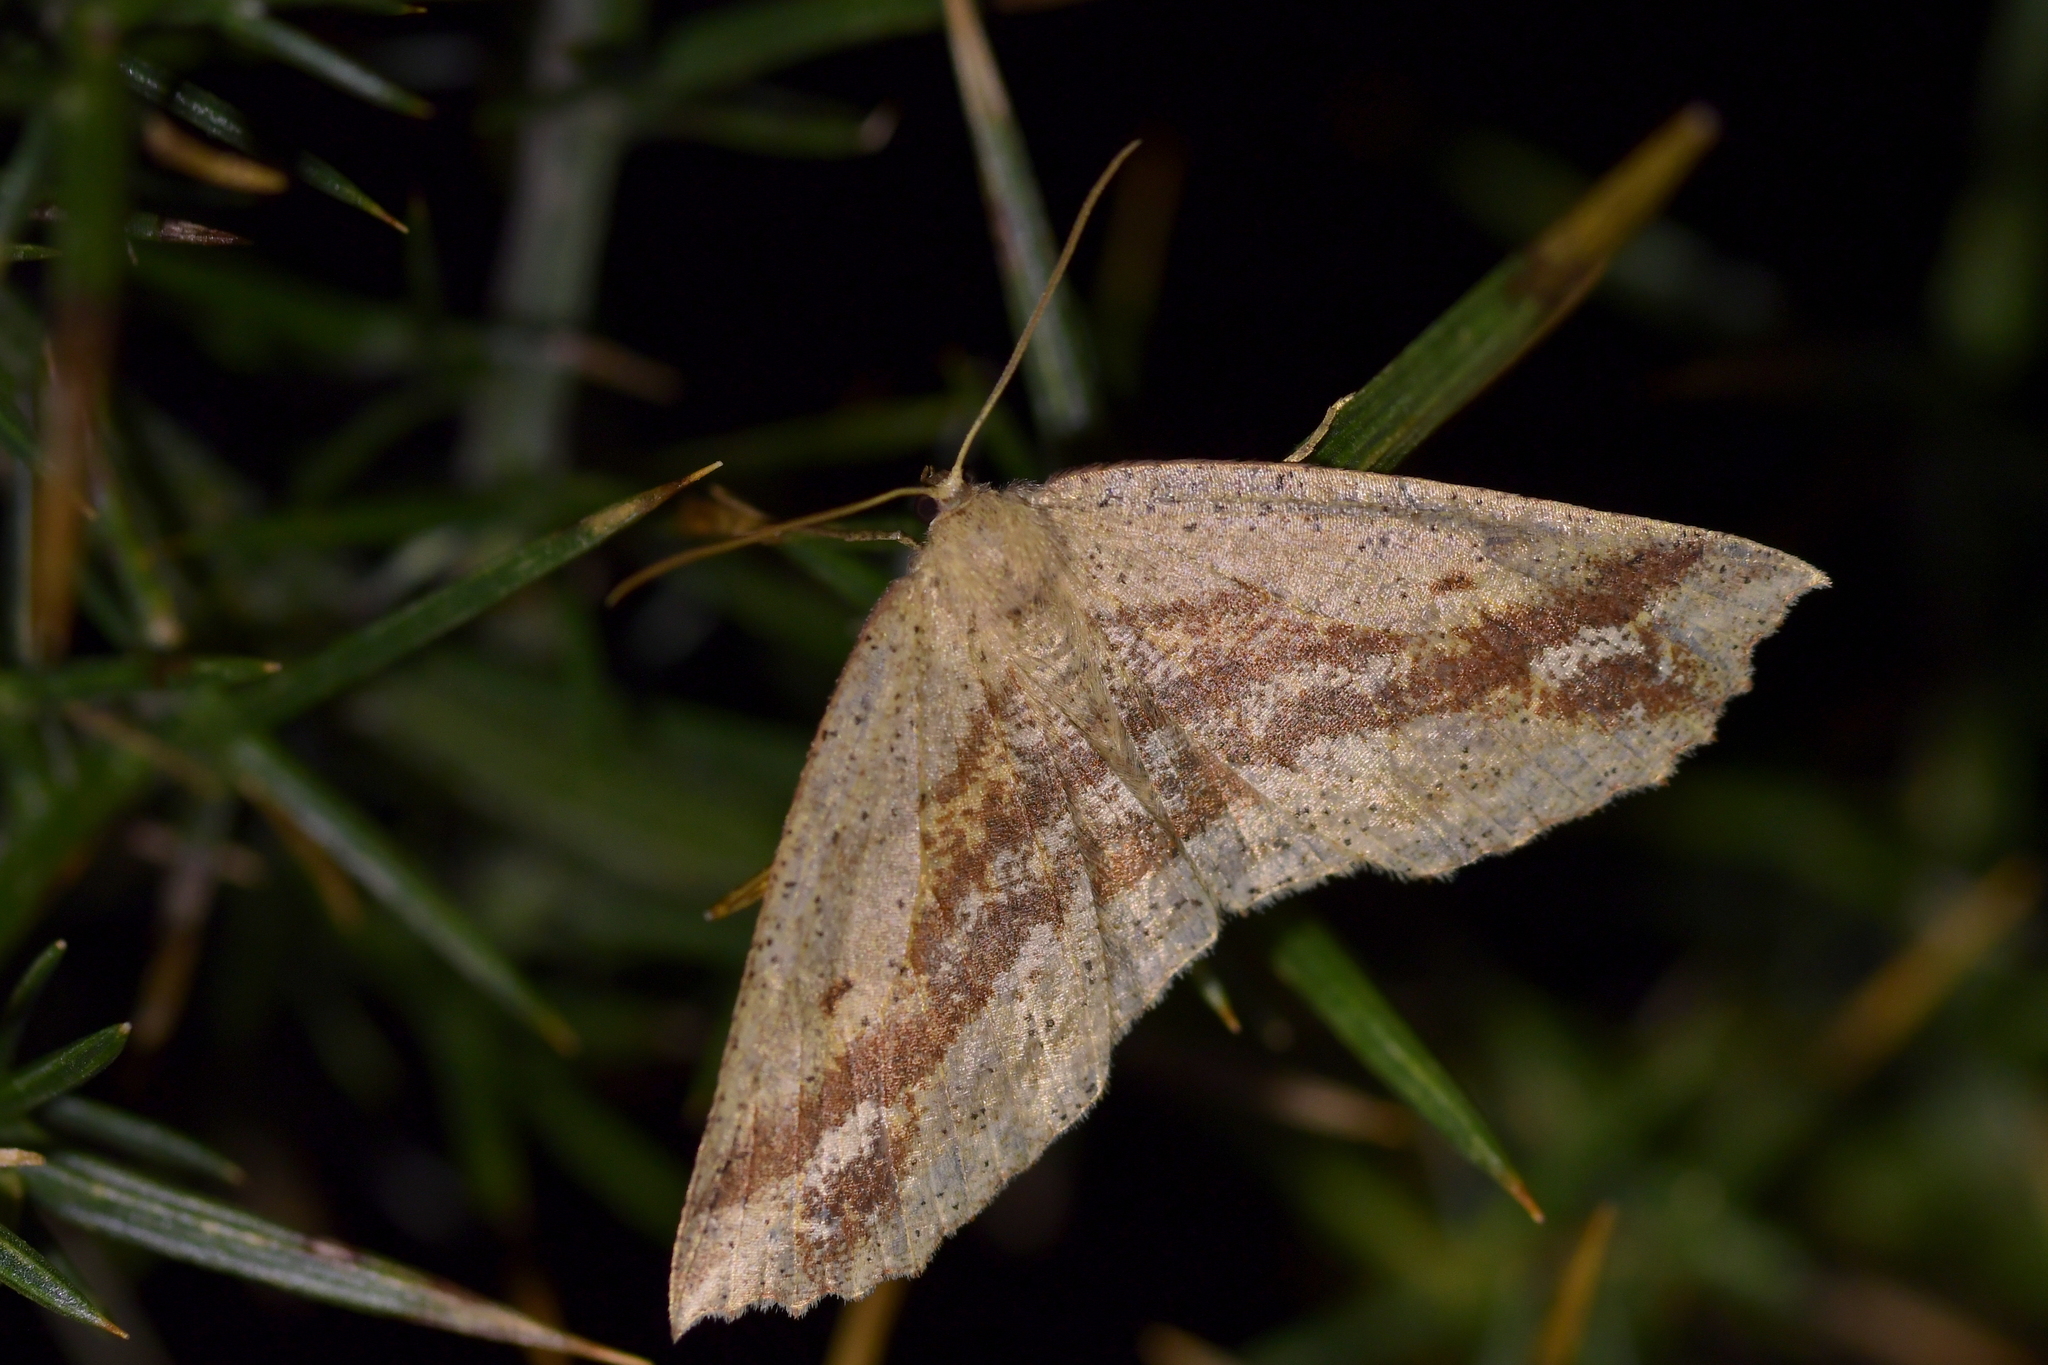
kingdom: Animalia
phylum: Arthropoda
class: Insecta
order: Lepidoptera
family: Geometridae
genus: Xyridacma
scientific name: Xyridacma veronicae
